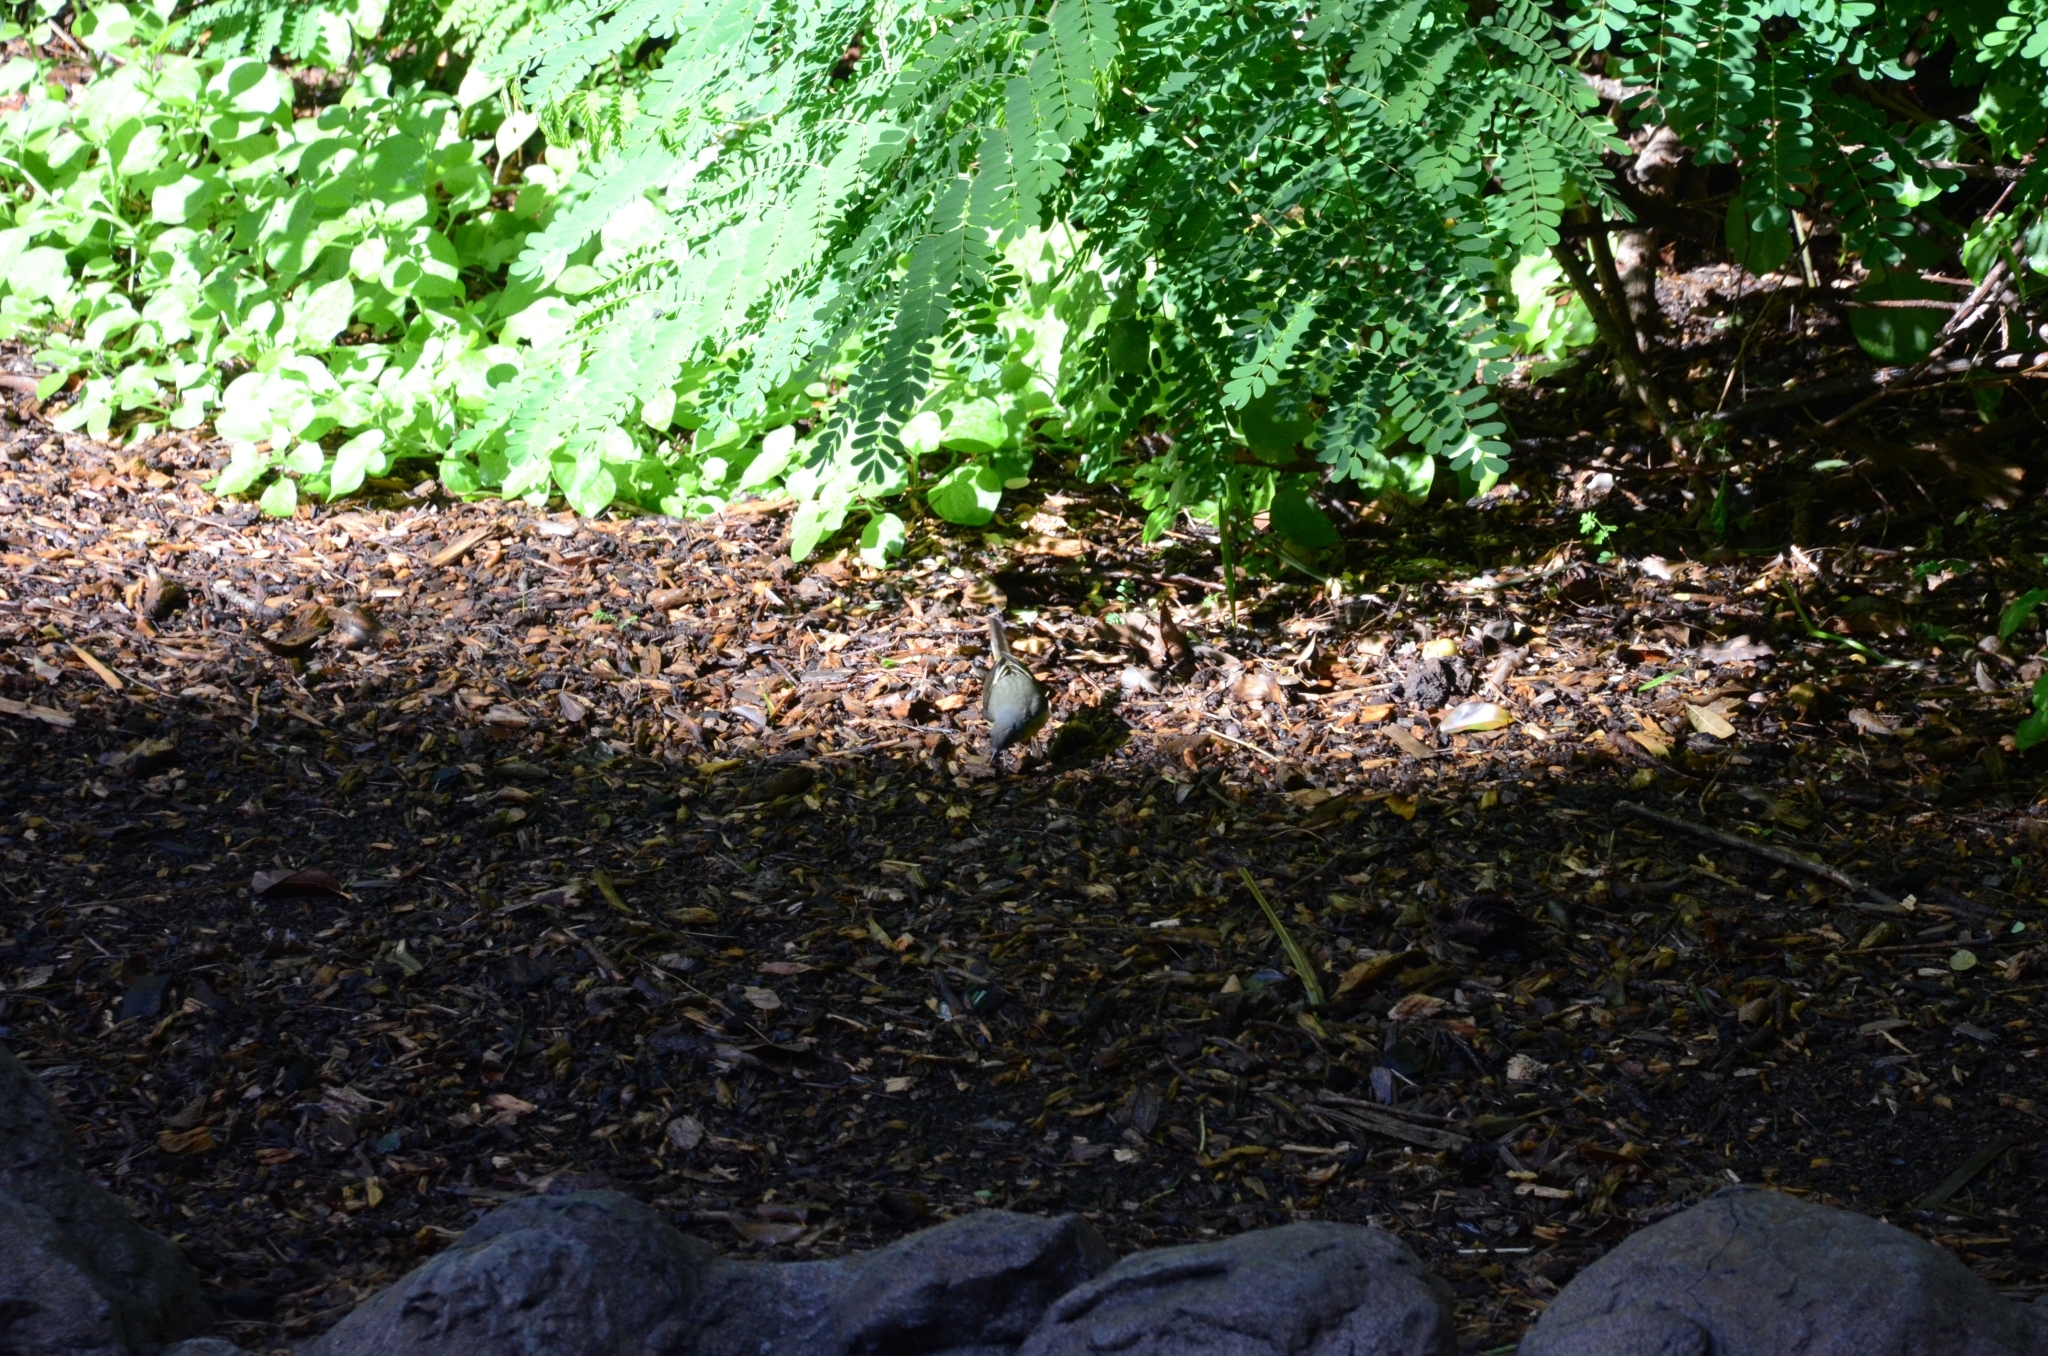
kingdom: Animalia
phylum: Chordata
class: Aves
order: Passeriformes
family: Motacillidae
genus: Motacilla
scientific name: Motacilla cinerea
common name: Grey wagtail
